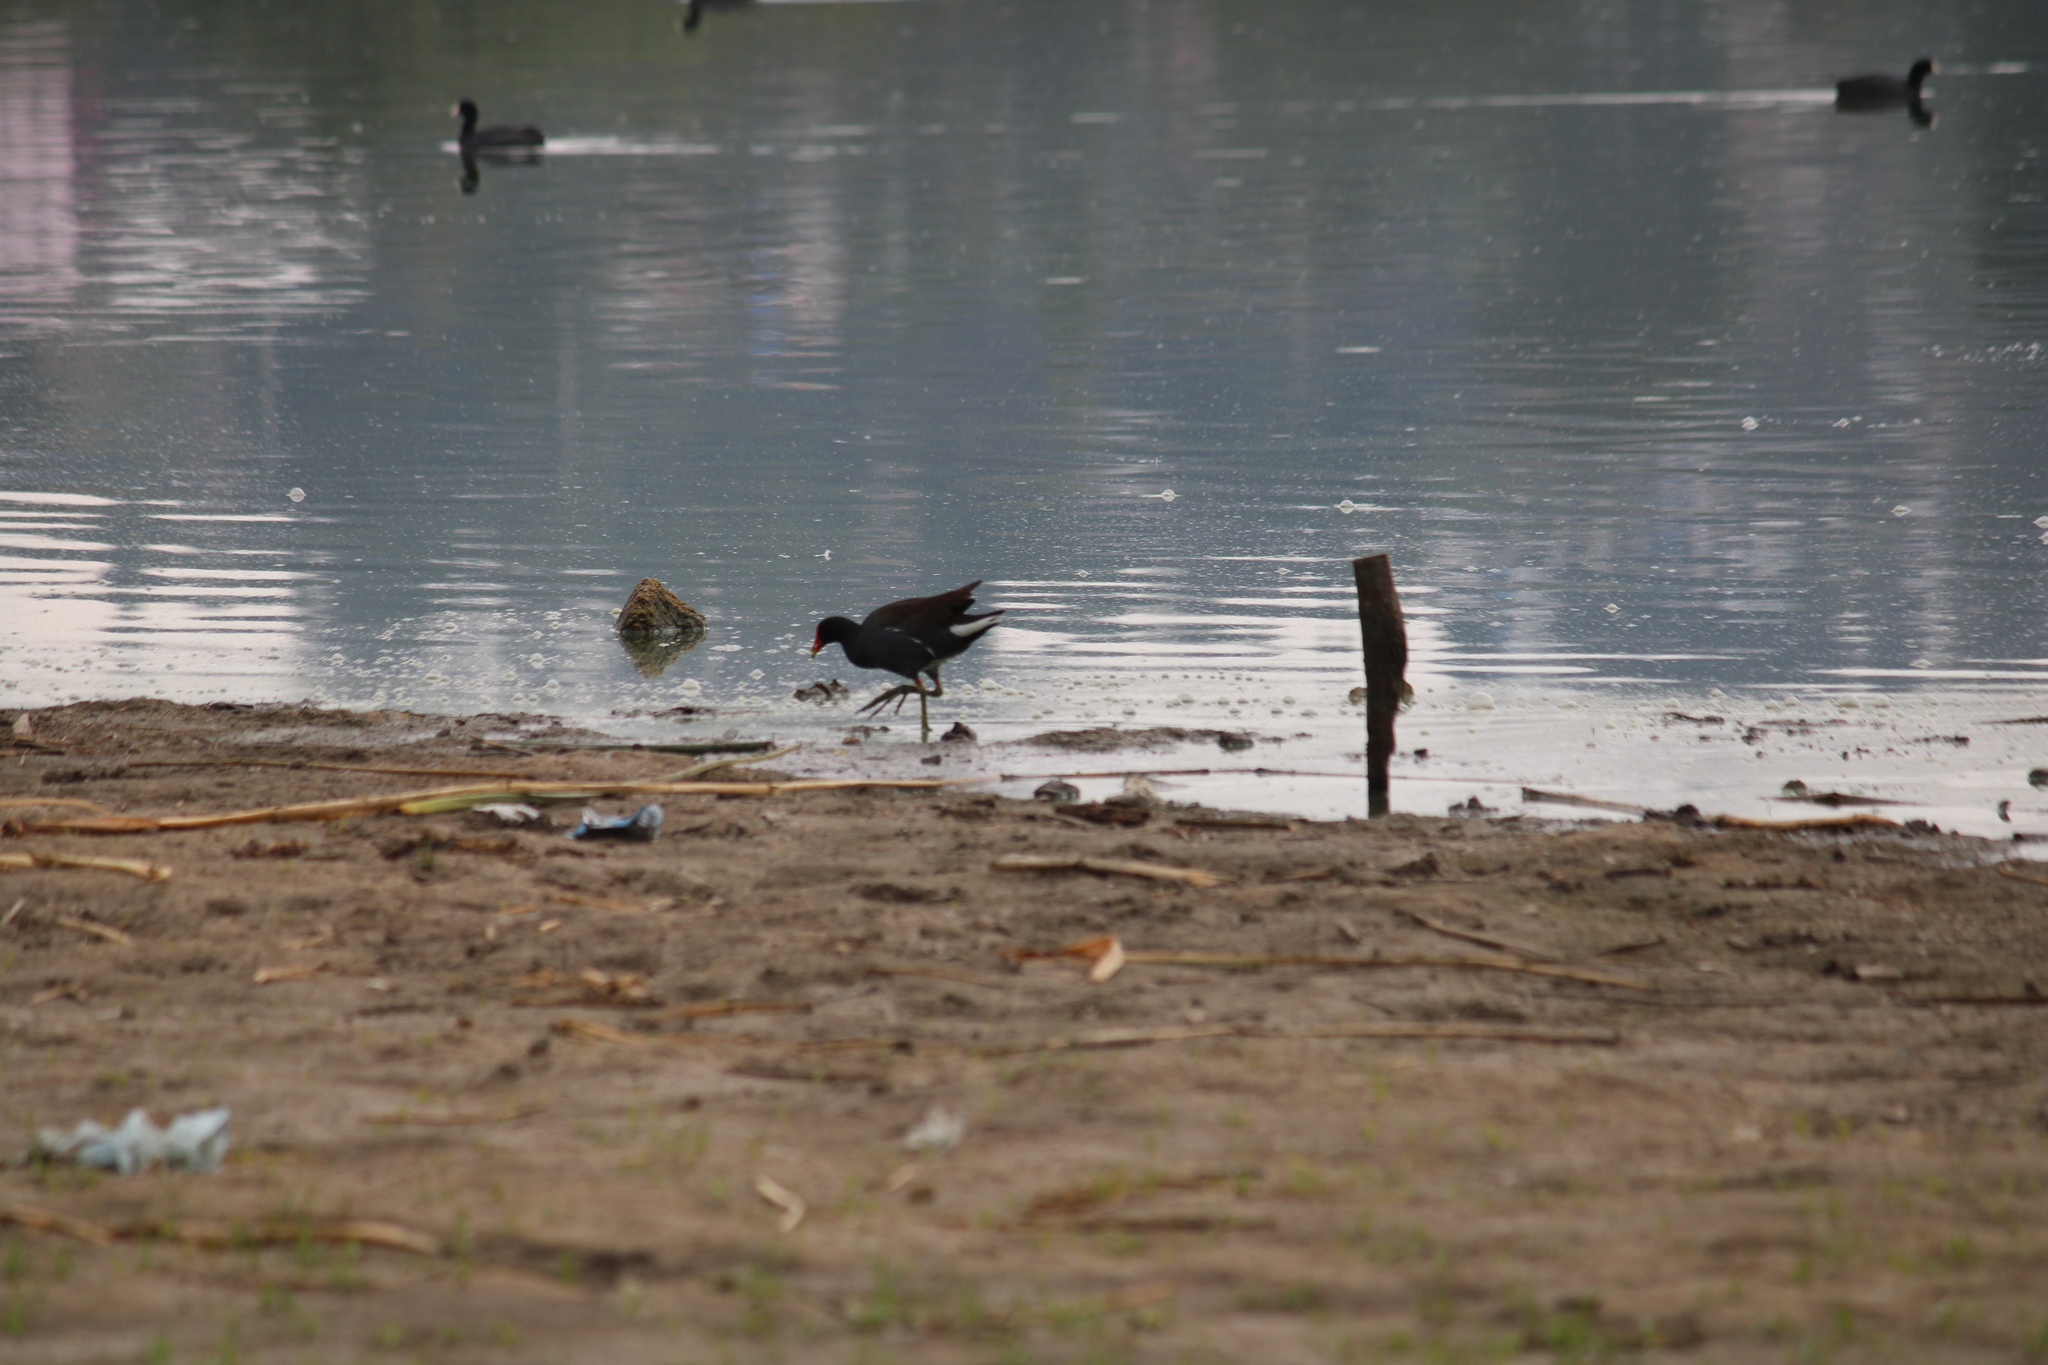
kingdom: Animalia
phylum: Chordata
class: Aves
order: Gruiformes
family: Rallidae
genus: Gallinula
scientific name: Gallinula chloropus
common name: Common moorhen
